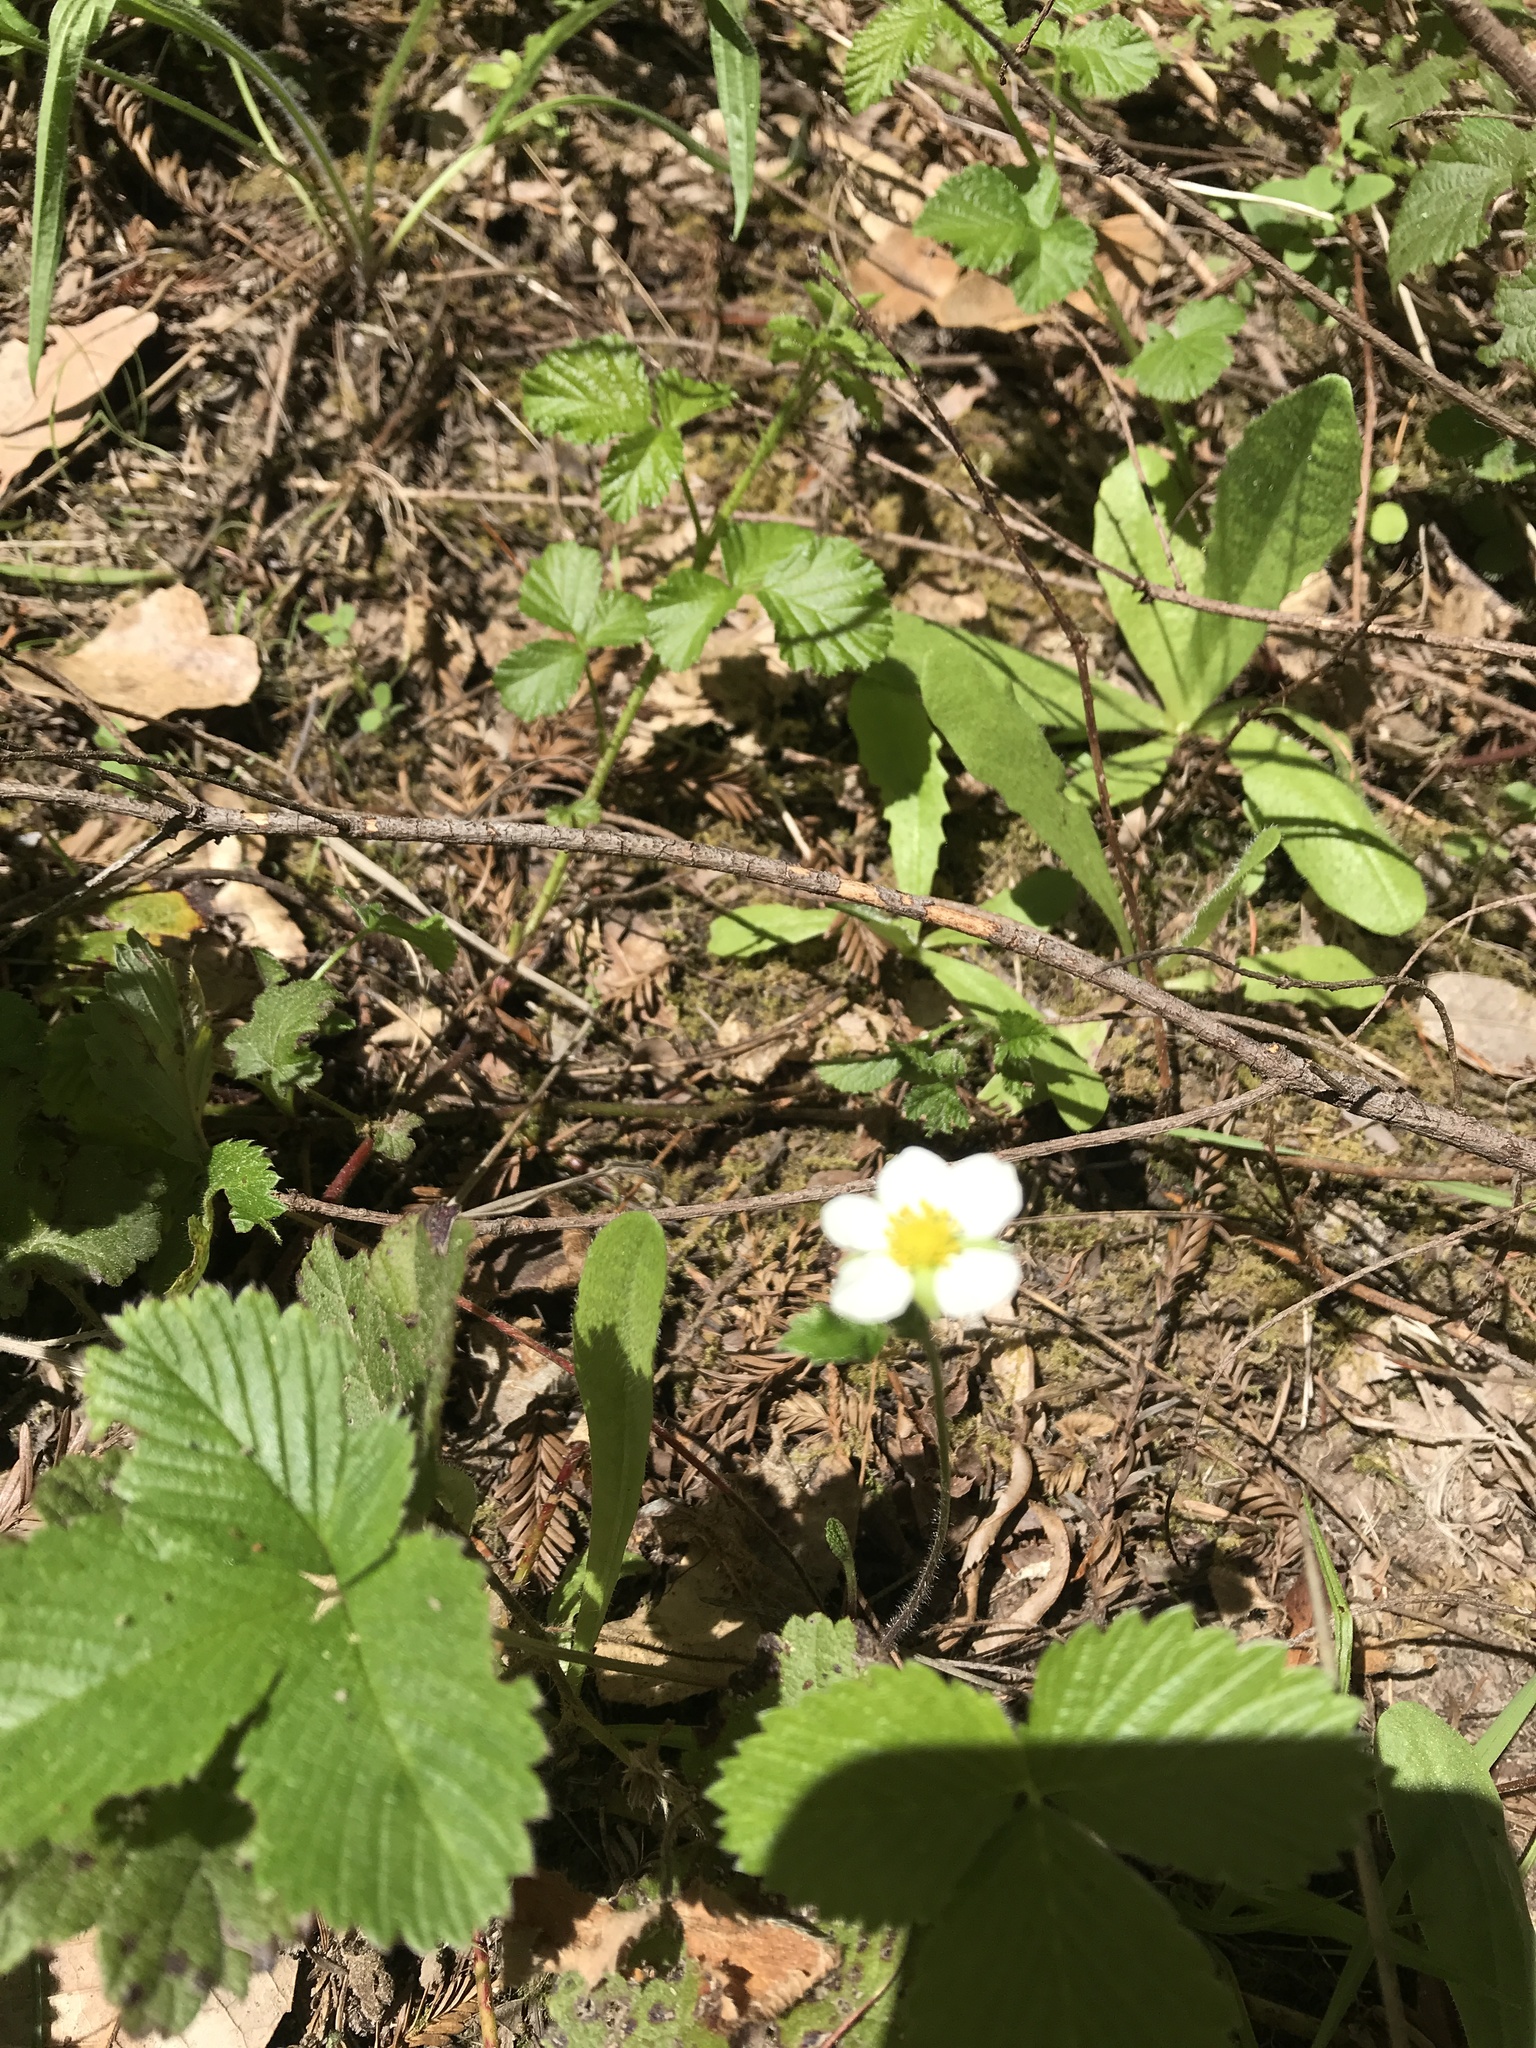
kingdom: Plantae
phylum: Tracheophyta
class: Magnoliopsida
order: Rosales
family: Rosaceae
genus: Fragaria
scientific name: Fragaria vesca
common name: Wild strawberry
